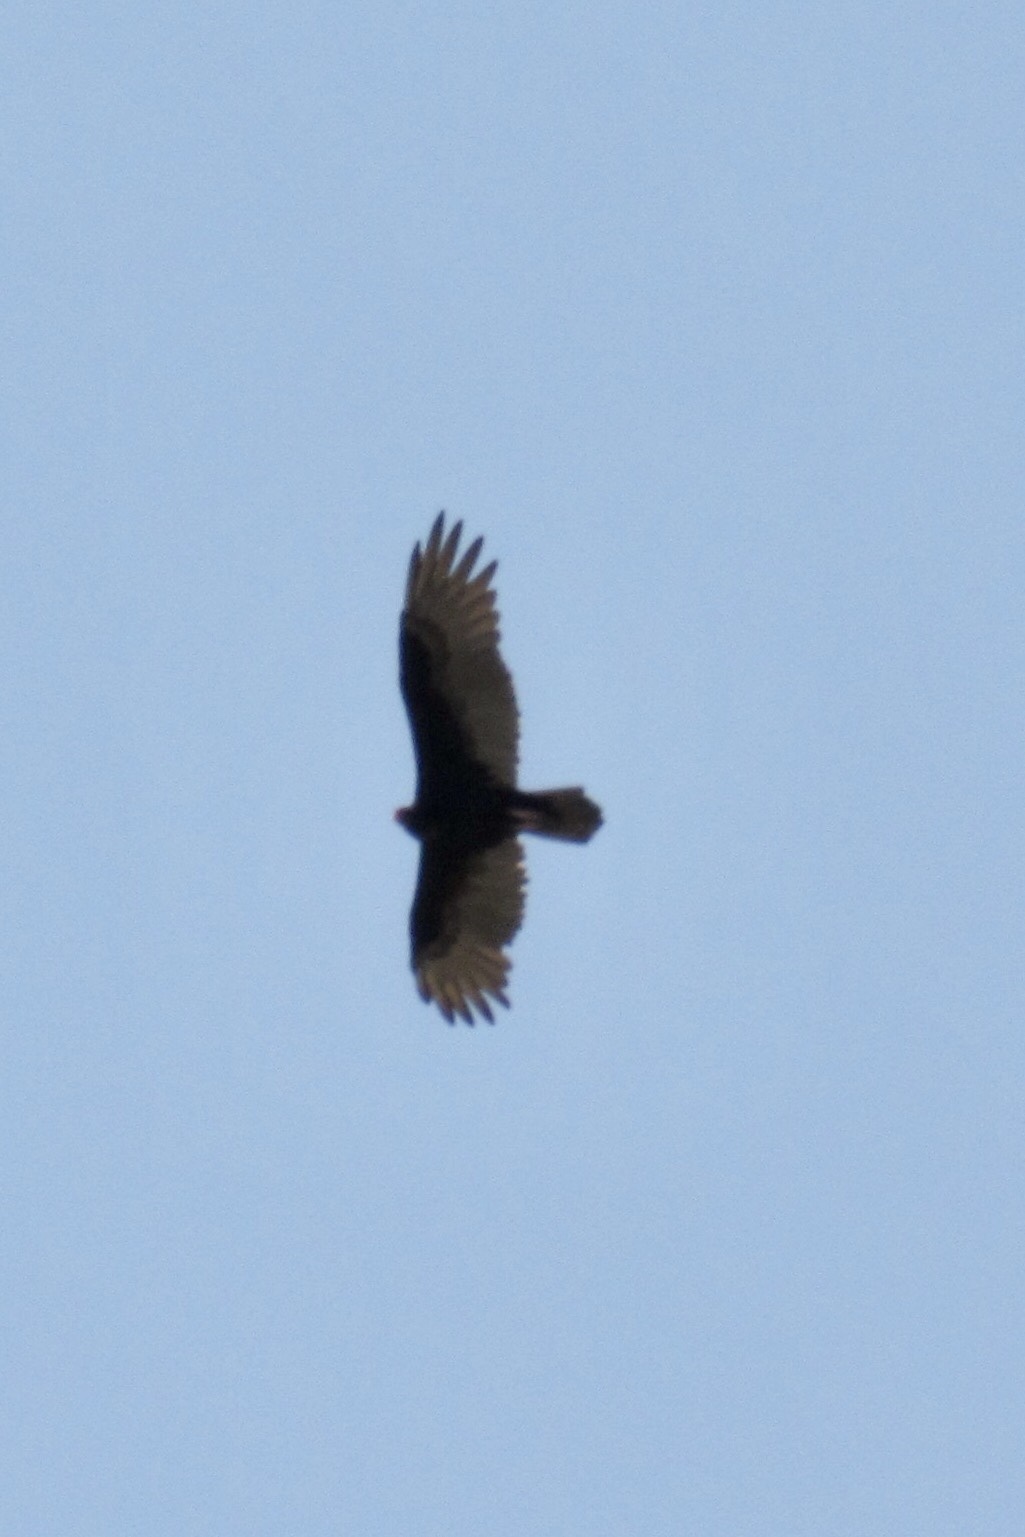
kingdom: Animalia
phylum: Chordata
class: Aves
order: Accipitriformes
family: Cathartidae
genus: Cathartes
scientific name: Cathartes aura
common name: Turkey vulture
